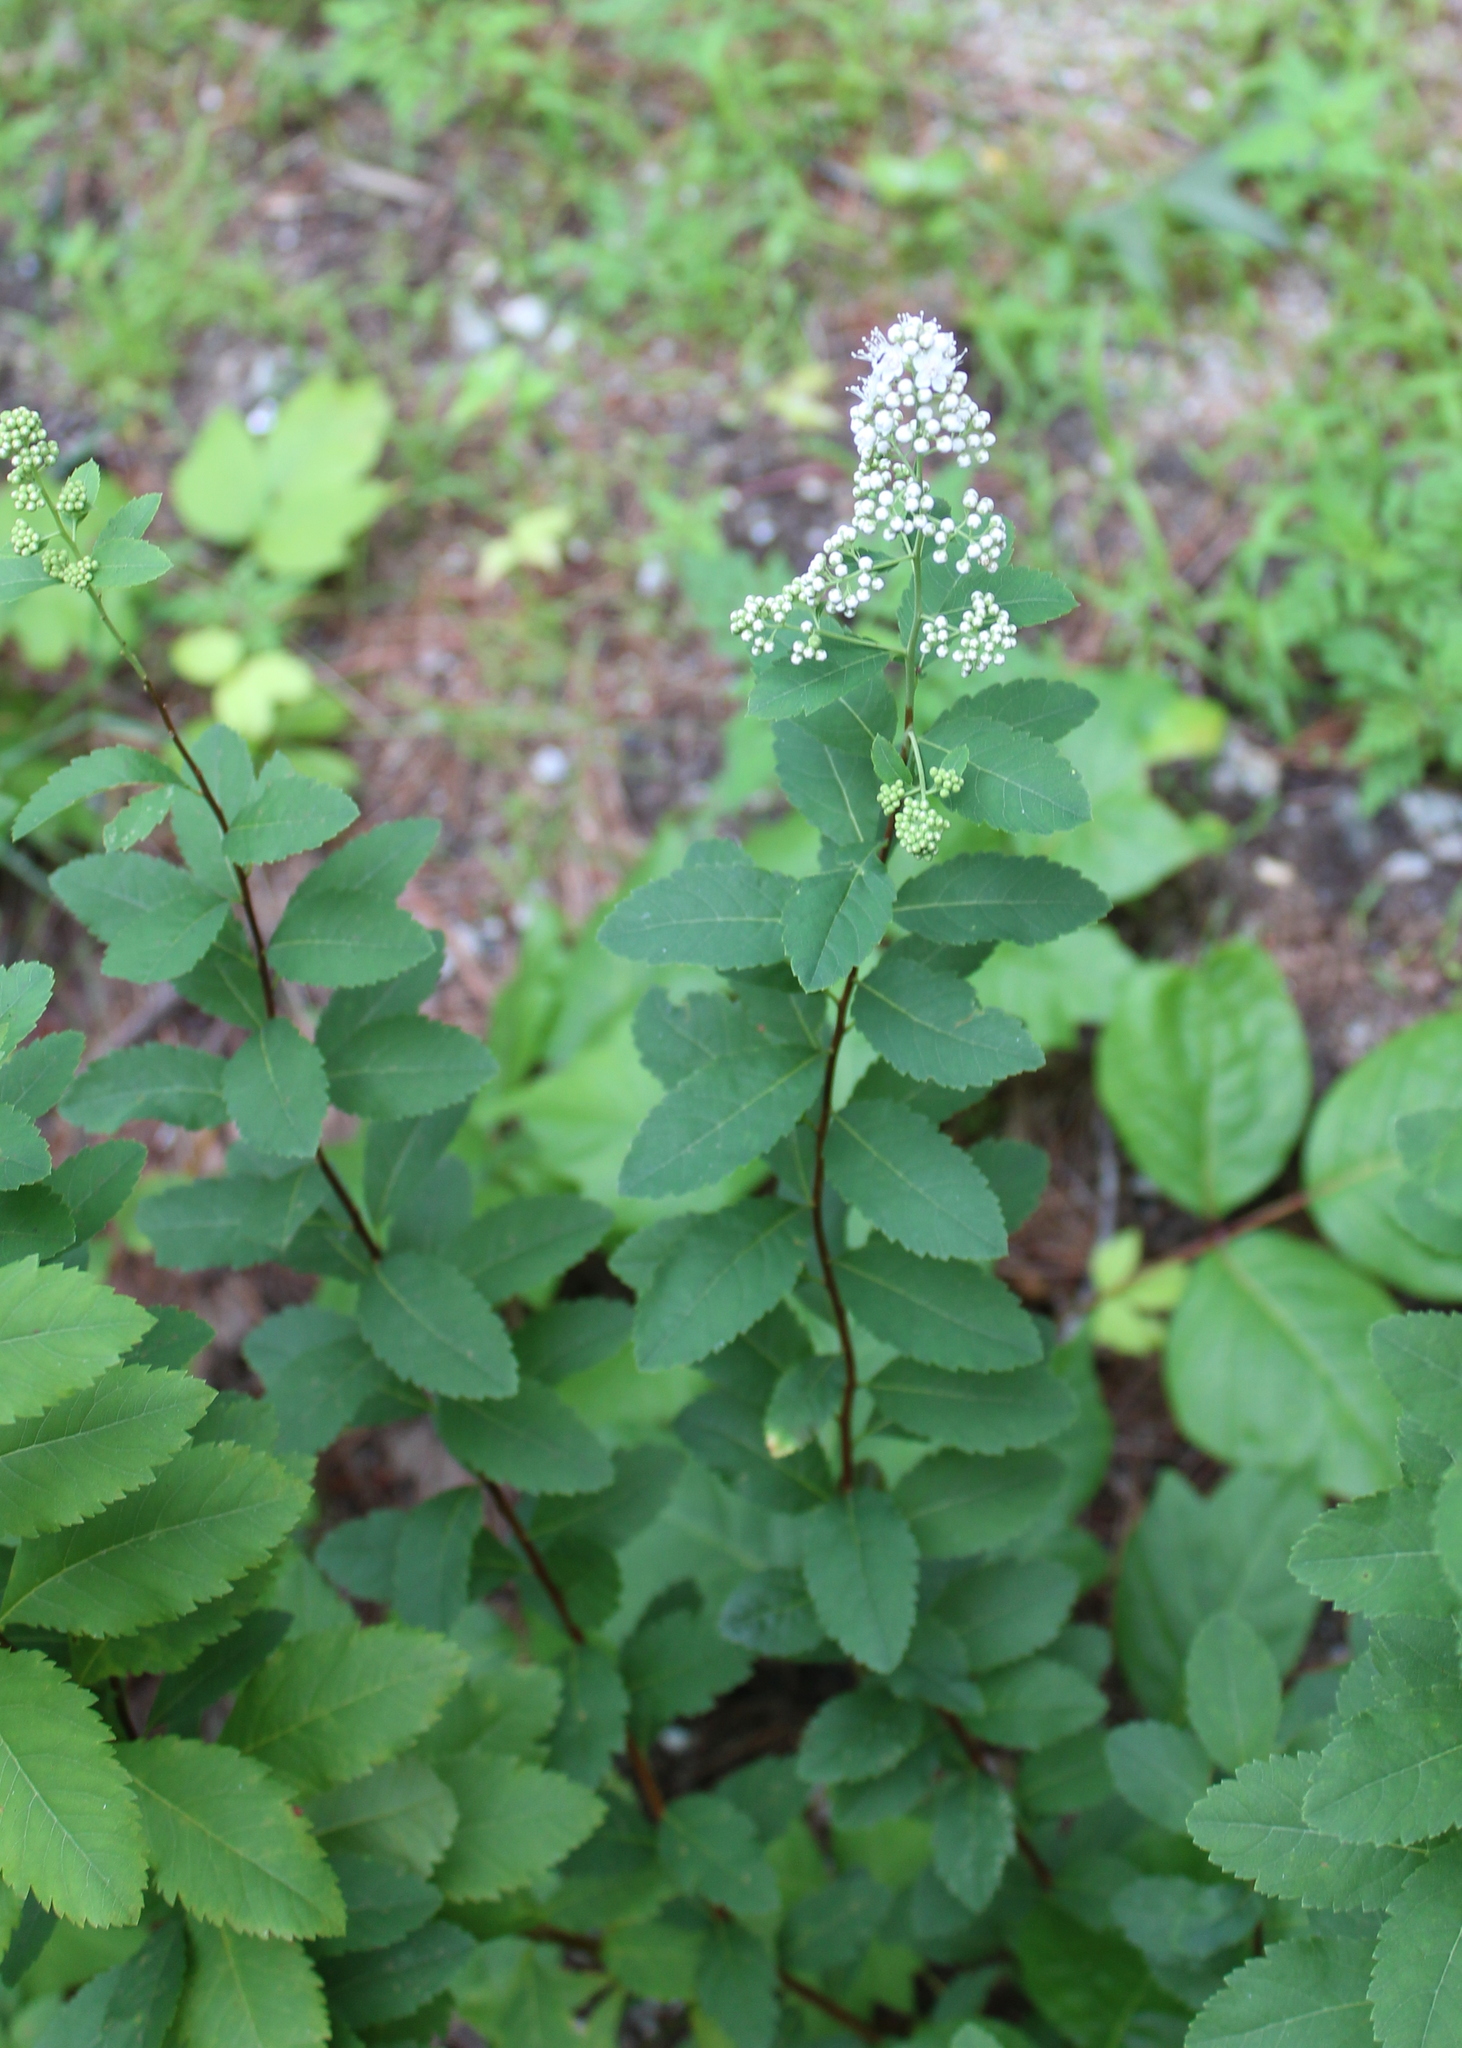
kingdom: Plantae
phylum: Tracheophyta
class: Magnoliopsida
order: Rosales
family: Rosaceae
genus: Spiraea
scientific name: Spiraea alba
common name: Pale bridewort
